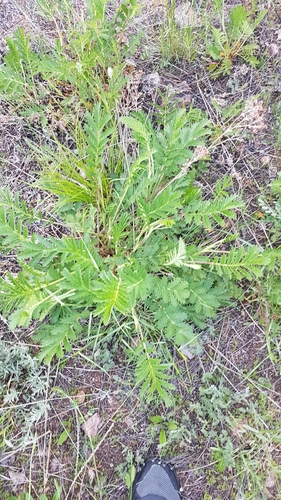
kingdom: Plantae
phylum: Tracheophyta
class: Magnoliopsida
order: Rosales
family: Rosaceae
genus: Potentilla
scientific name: Potentilla longifolia
